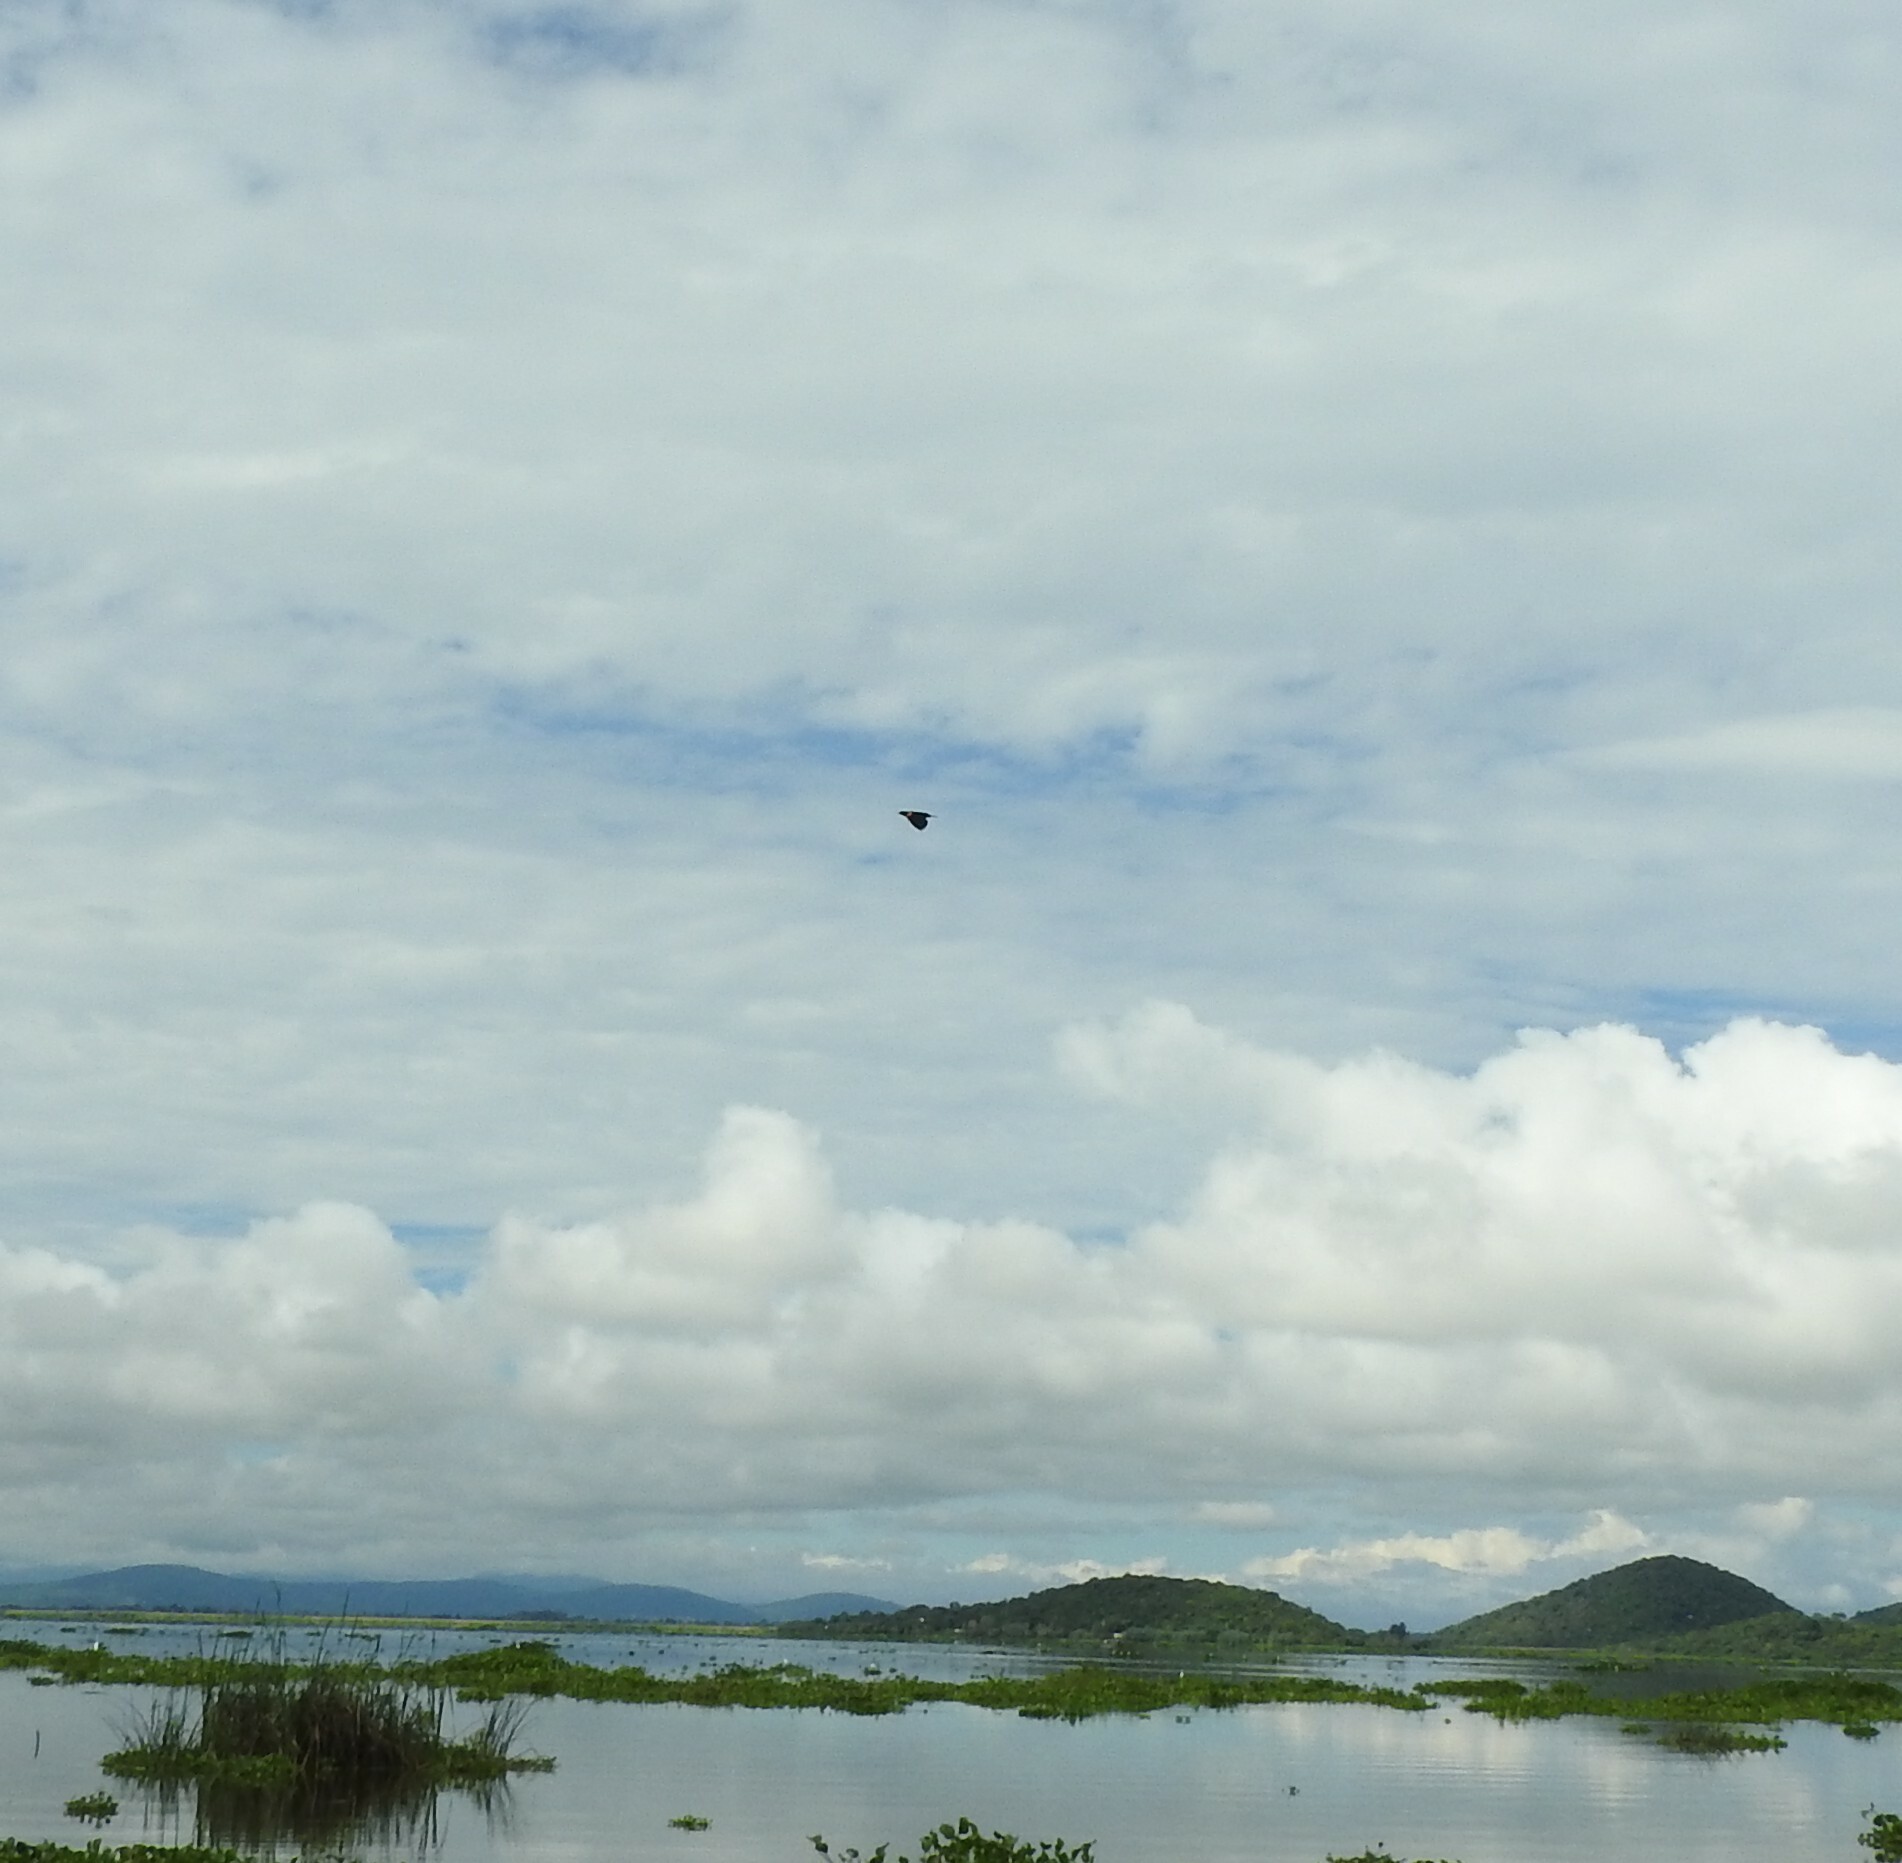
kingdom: Animalia
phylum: Chordata
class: Aves
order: Passeriformes
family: Icteridae
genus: Agelaius
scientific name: Agelaius phoeniceus
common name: Red-winged blackbird
